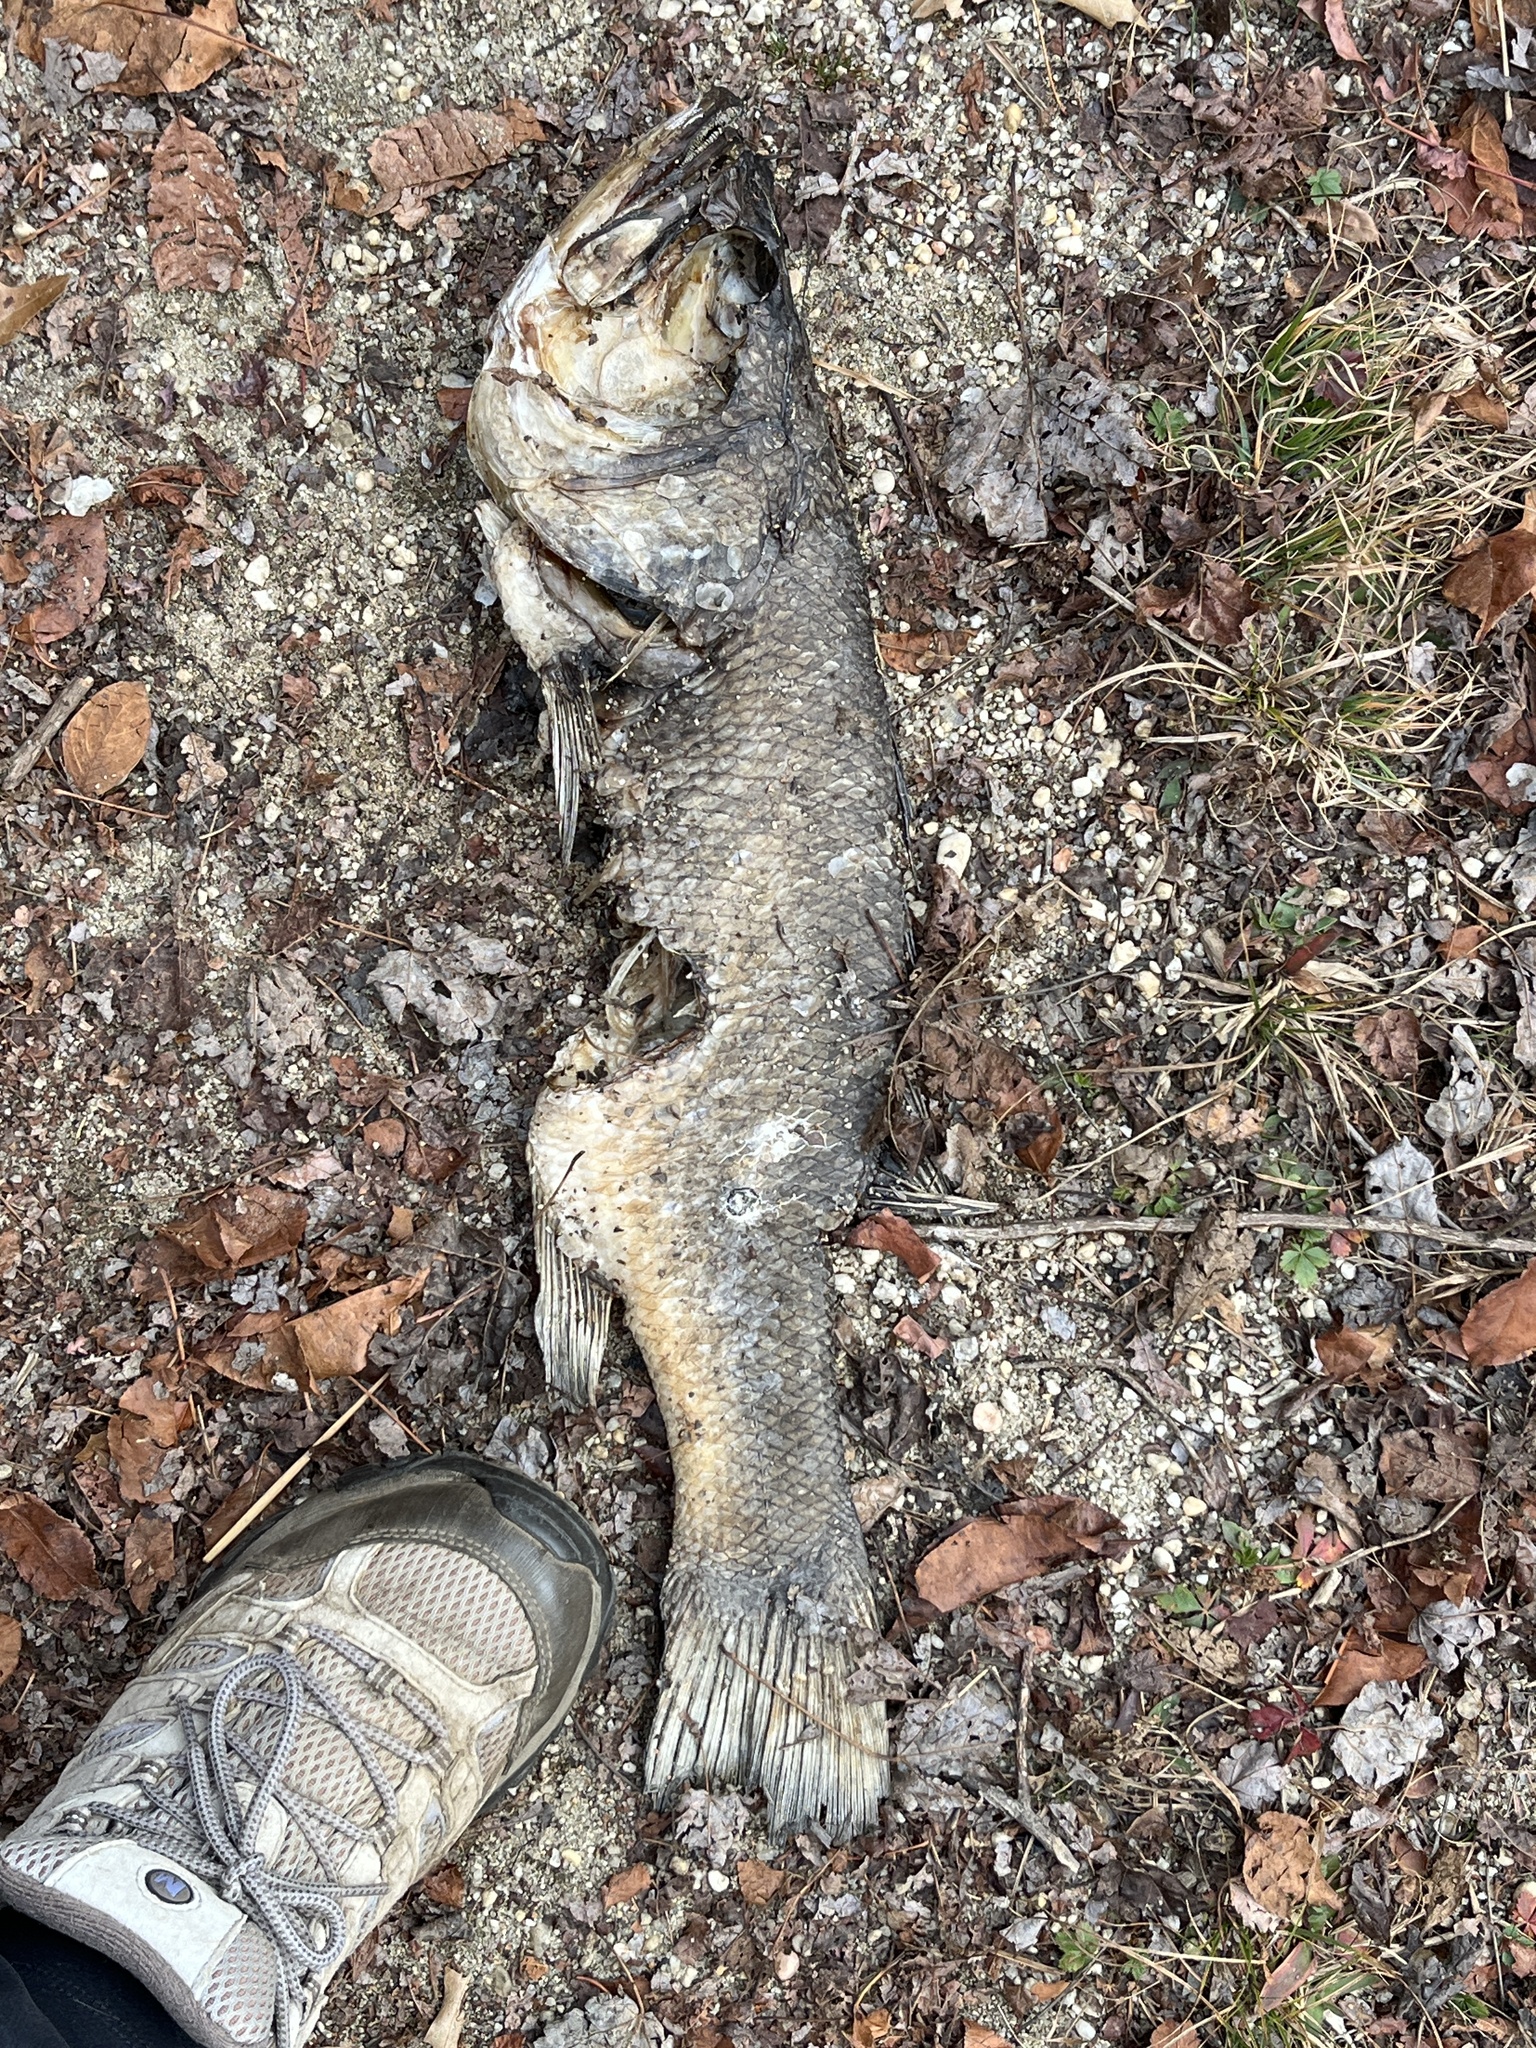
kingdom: Animalia
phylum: Chordata
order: Perciformes
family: Centrarchidae
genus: Micropterus
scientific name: Micropterus
